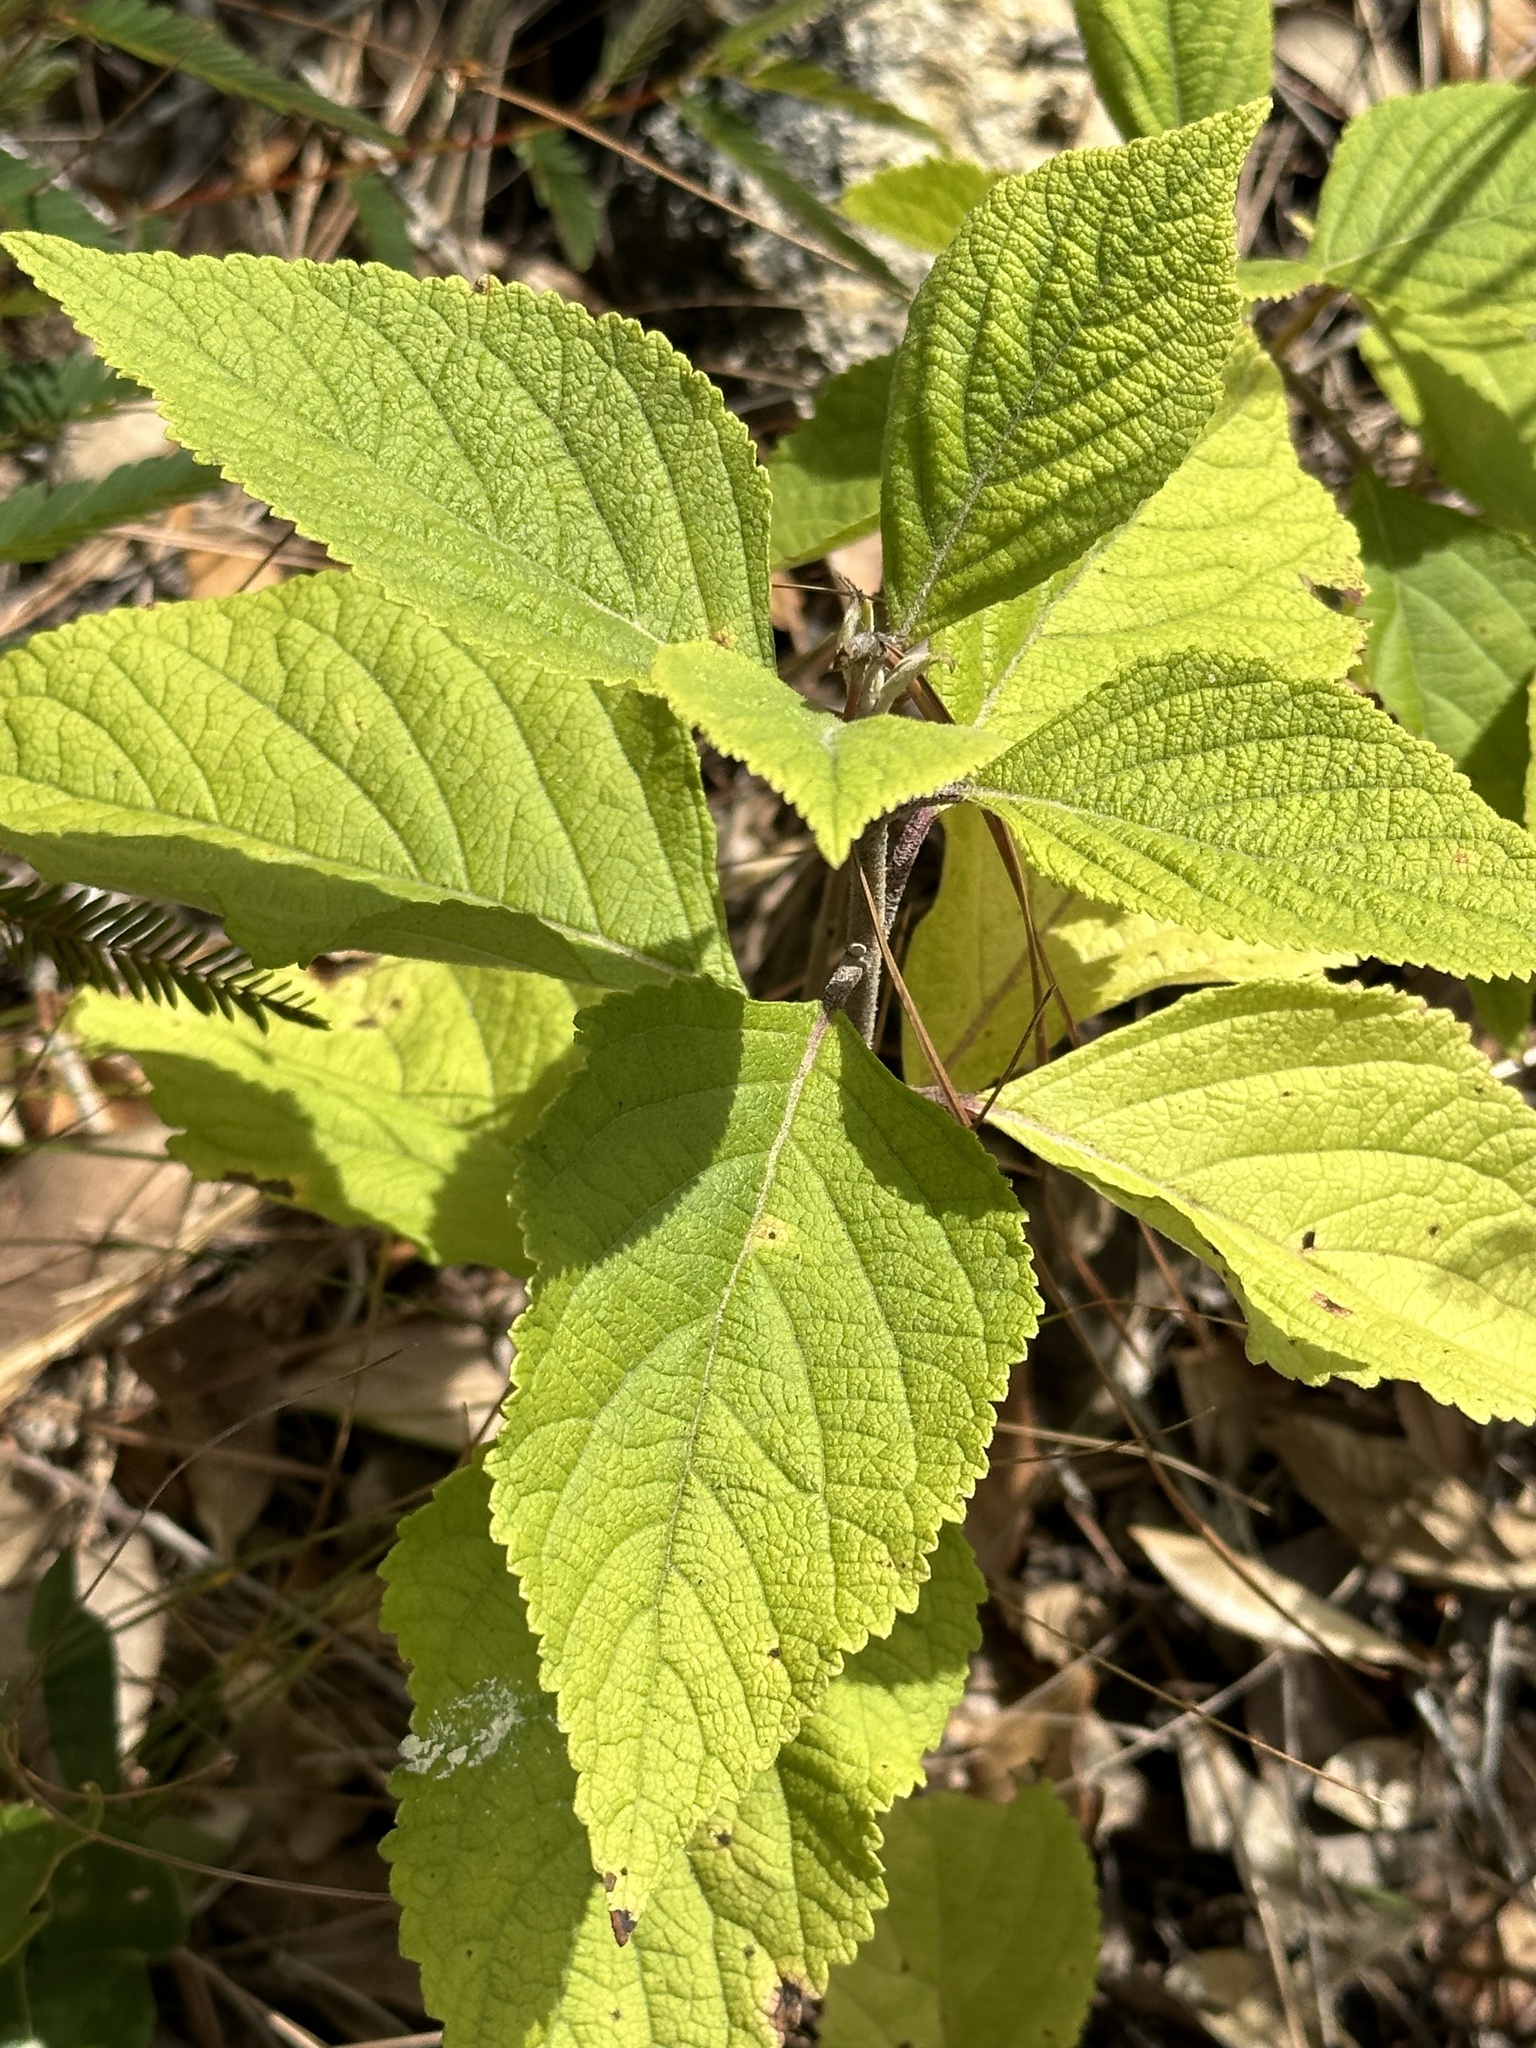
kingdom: Plantae
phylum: Tracheophyta
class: Magnoliopsida
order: Lamiales
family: Lamiaceae
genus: Callicarpa
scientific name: Callicarpa americana
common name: American beautyberry
